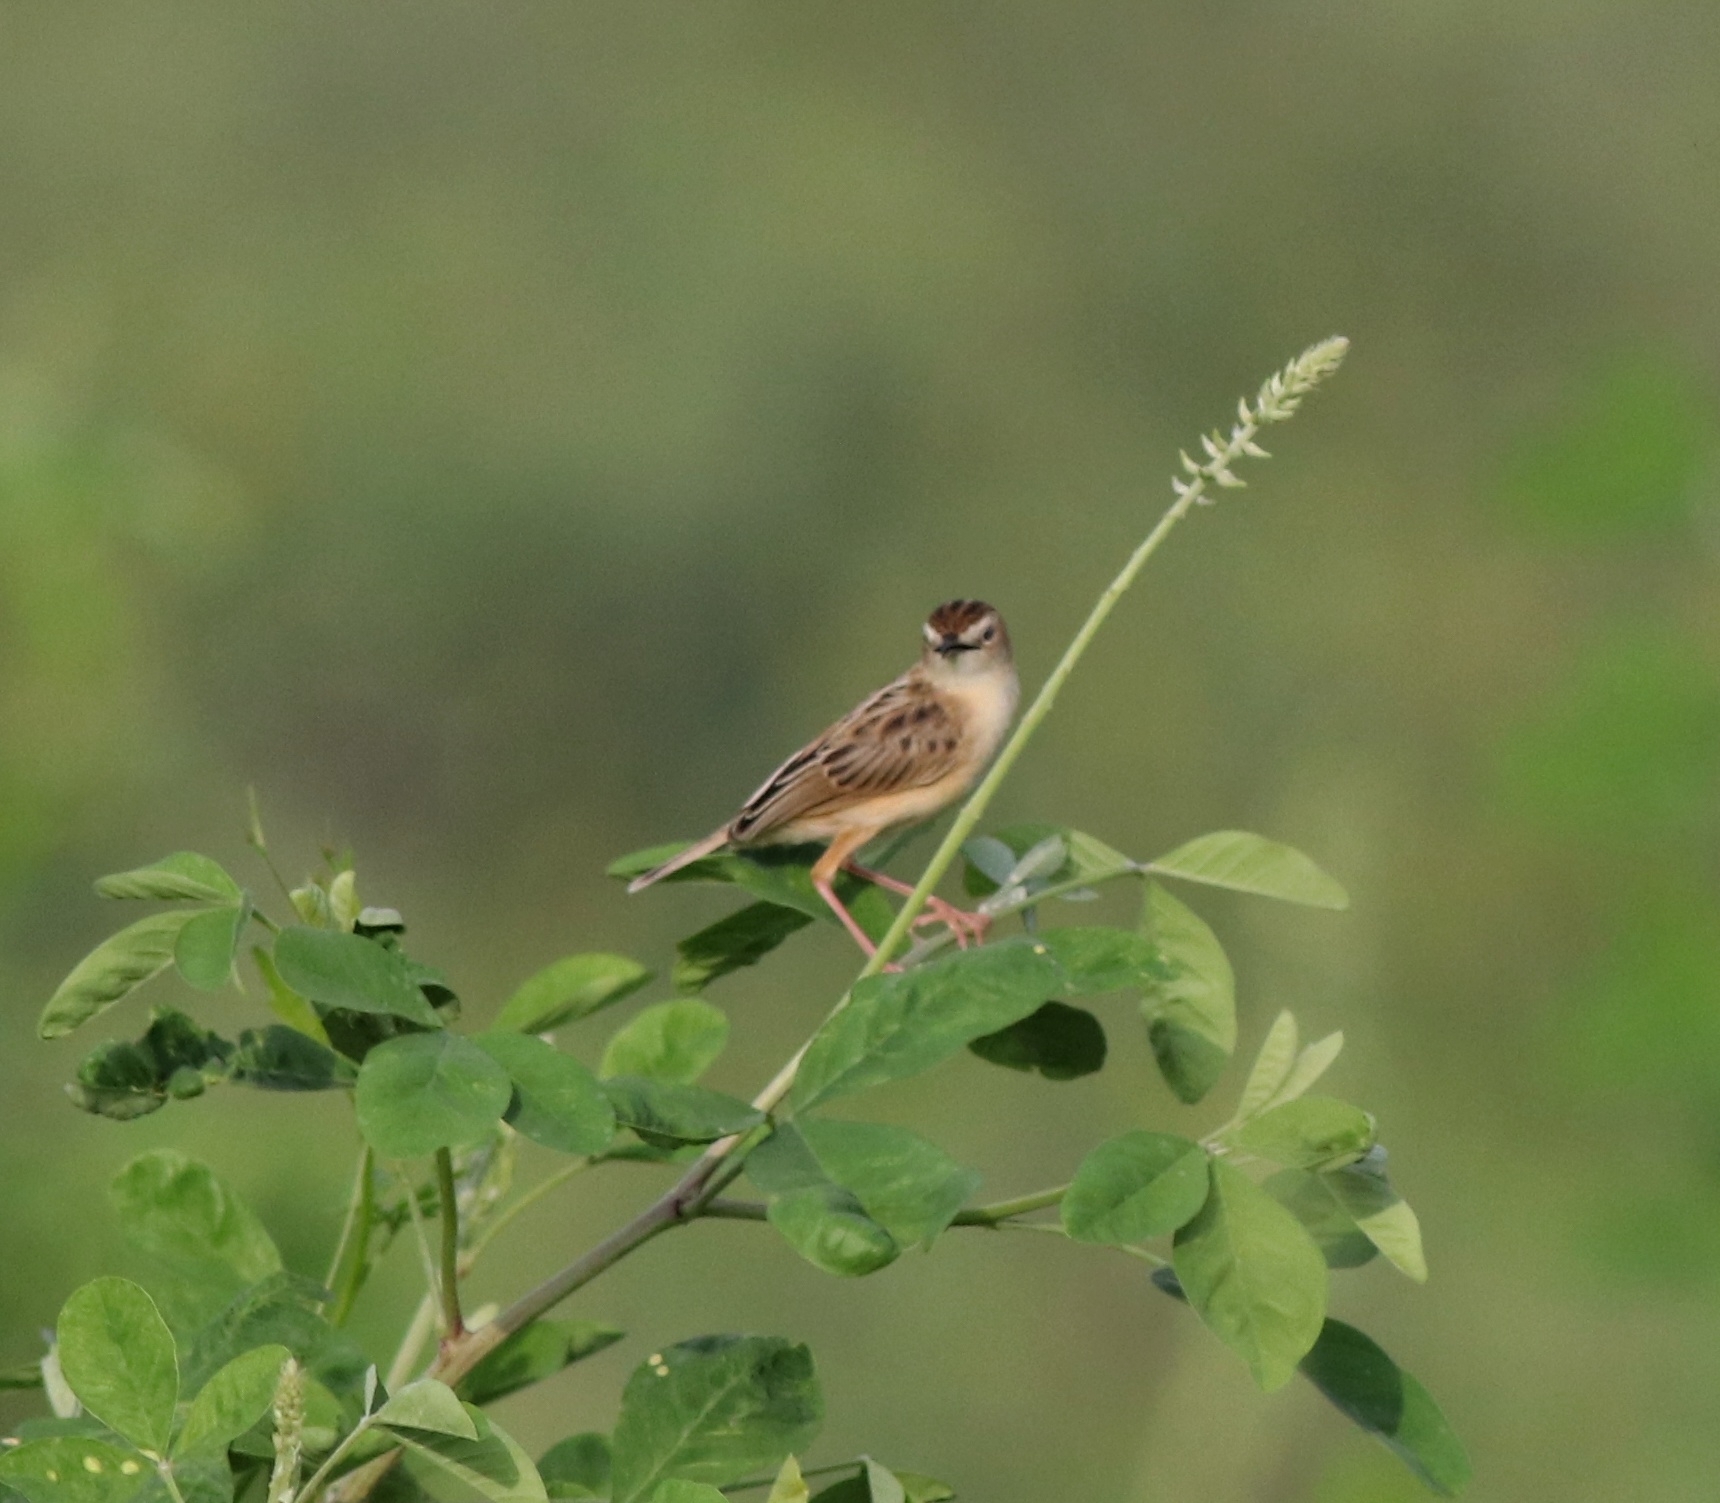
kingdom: Animalia
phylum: Chordata
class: Aves
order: Passeriformes
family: Cisticolidae
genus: Cisticola
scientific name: Cisticola juncidis
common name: Zitting cisticola
